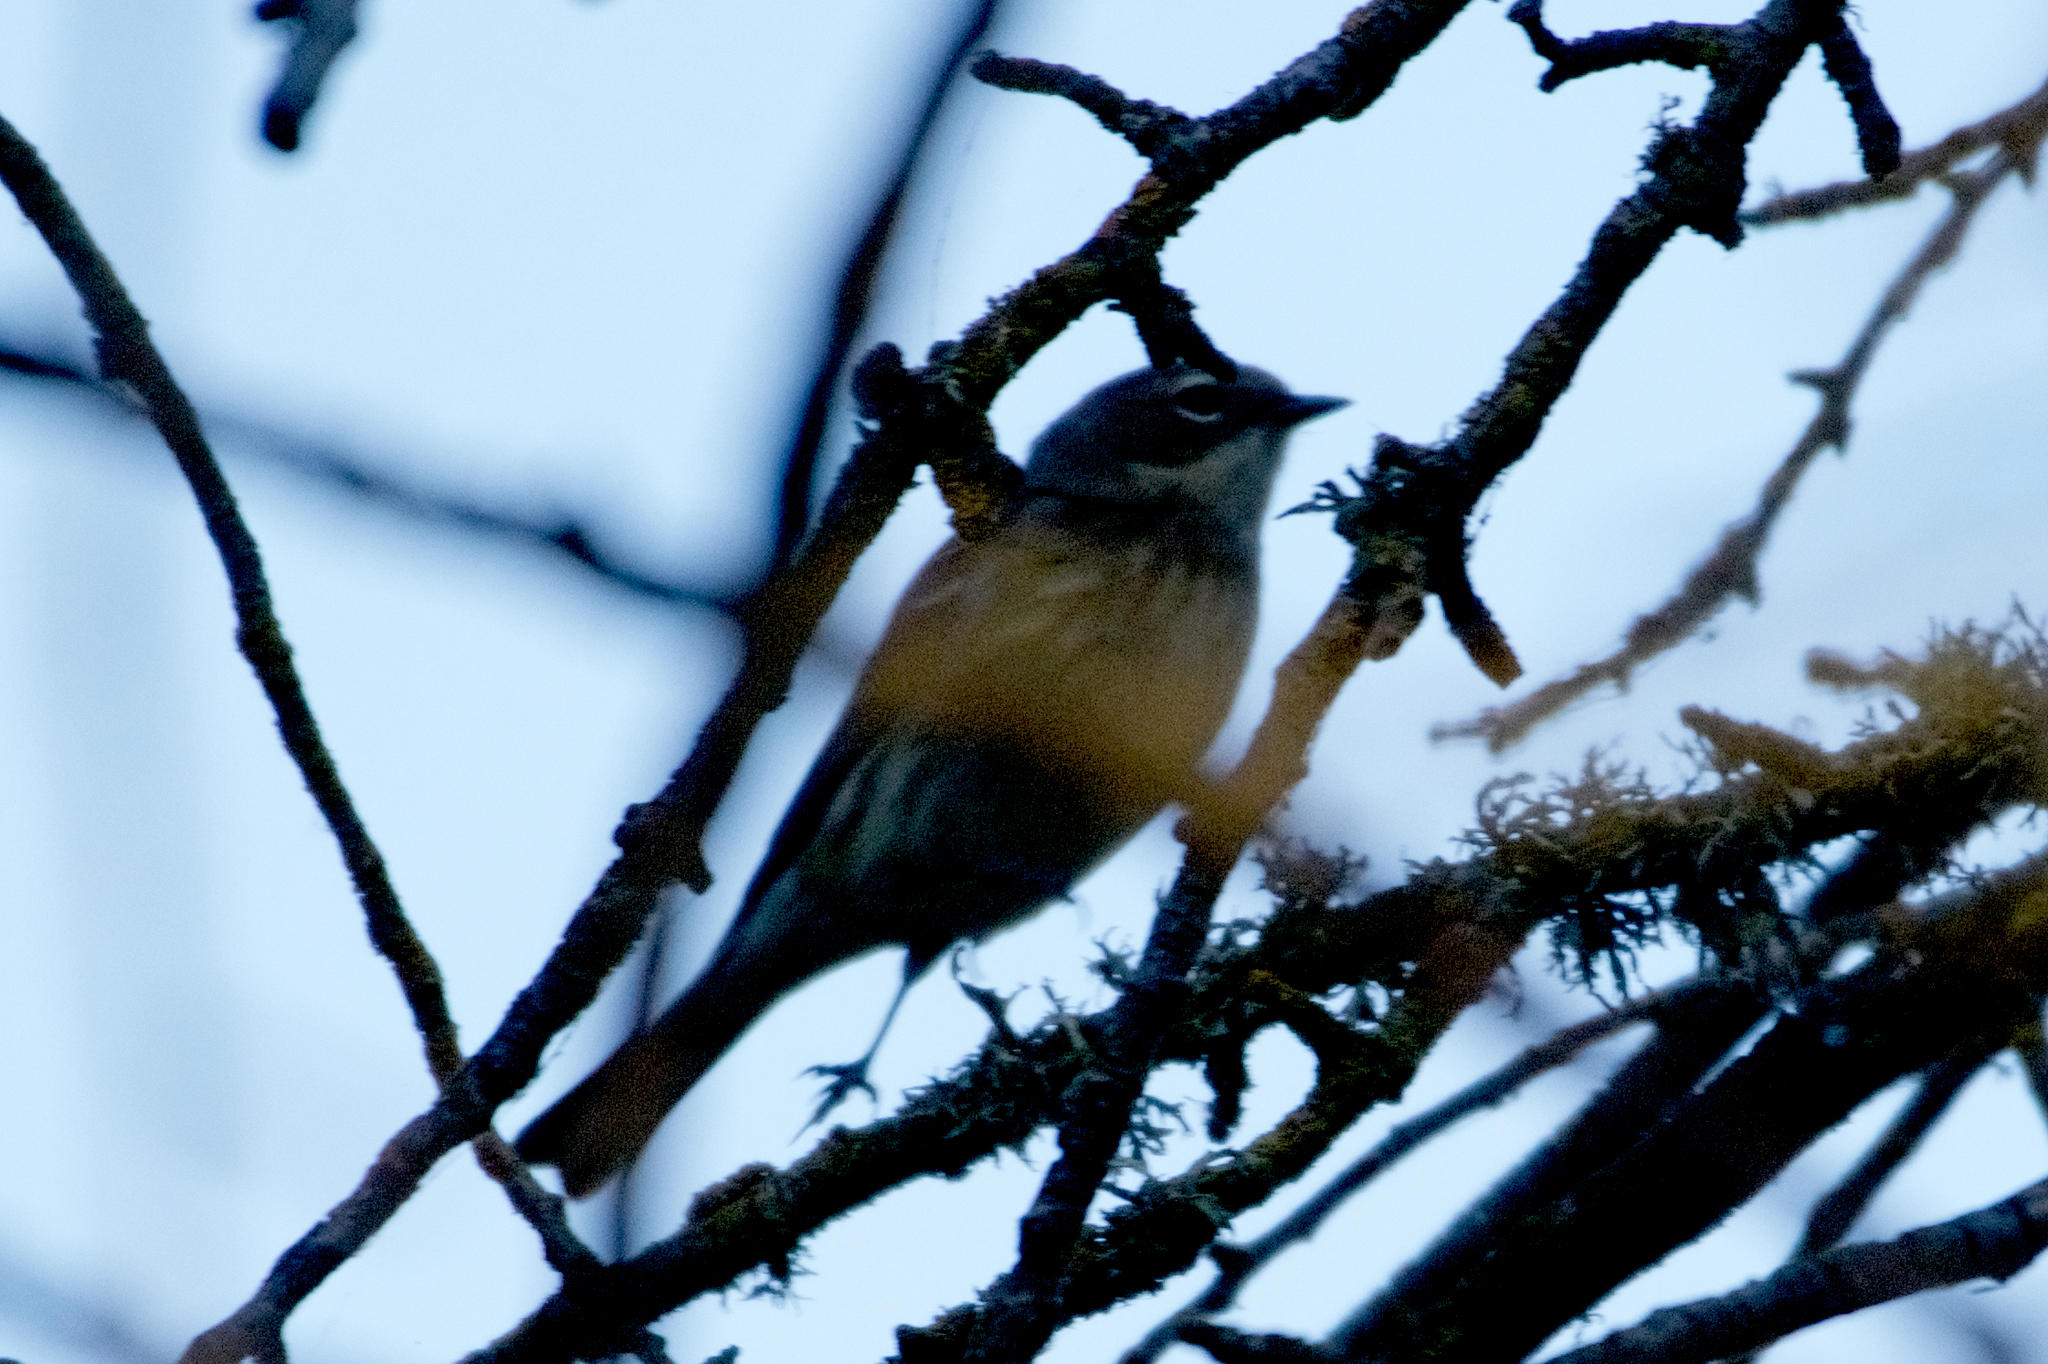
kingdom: Animalia
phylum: Chordata
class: Aves
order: Passeriformes
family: Parulidae
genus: Setophaga
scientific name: Setophaga coronata
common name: Myrtle warbler
